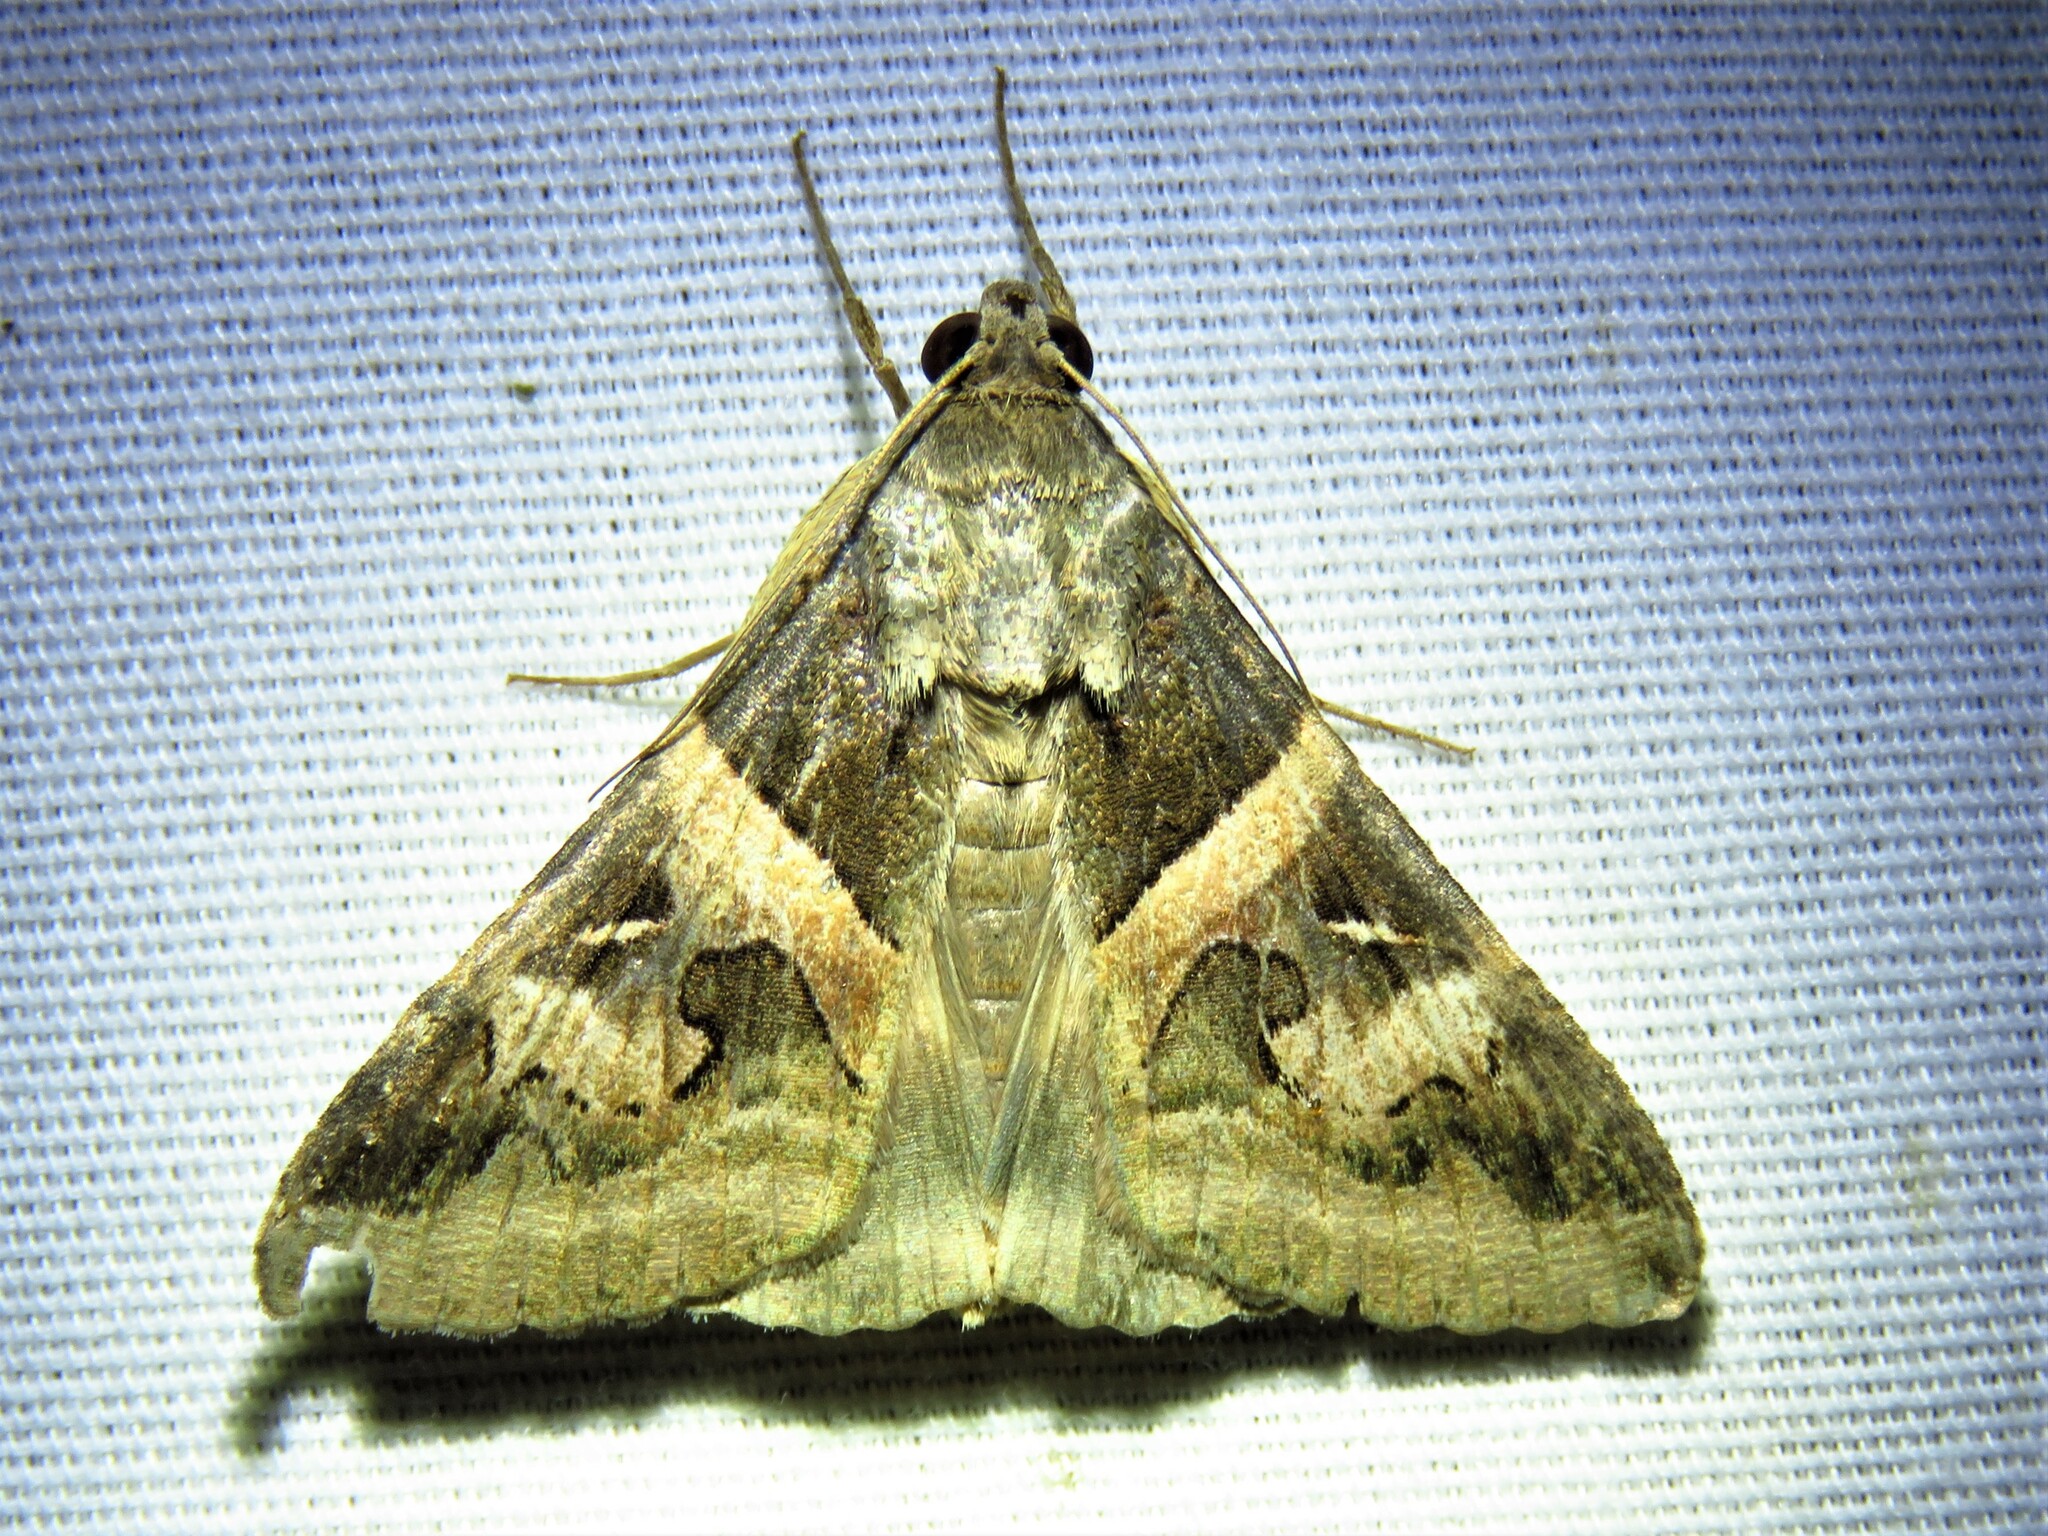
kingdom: Animalia
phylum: Arthropoda
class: Insecta
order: Lepidoptera
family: Erebidae
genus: Melipotis
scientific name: Melipotis indomita
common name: Moth
